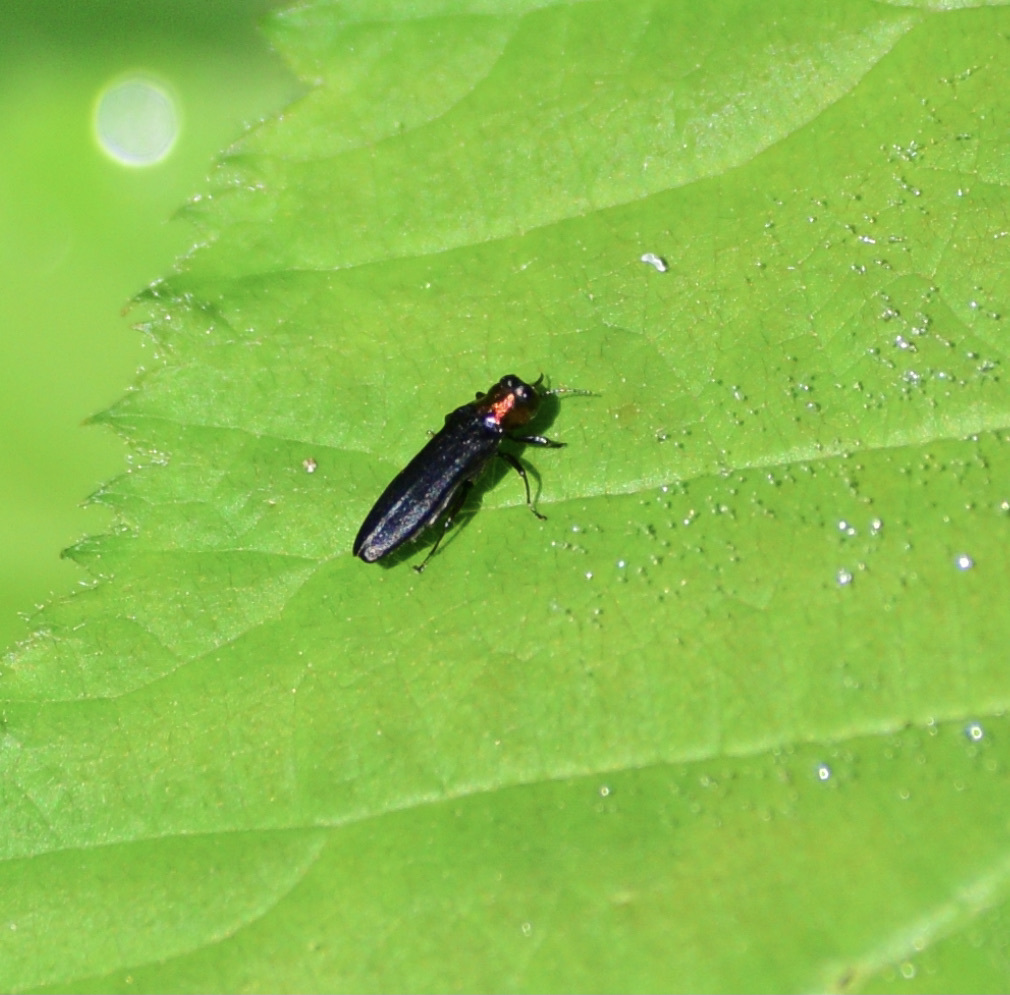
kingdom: Animalia
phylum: Arthropoda
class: Insecta
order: Coleoptera
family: Buprestidae
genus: Agrilus
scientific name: Agrilus ruficollis
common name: Red-necked cane borer beetle
